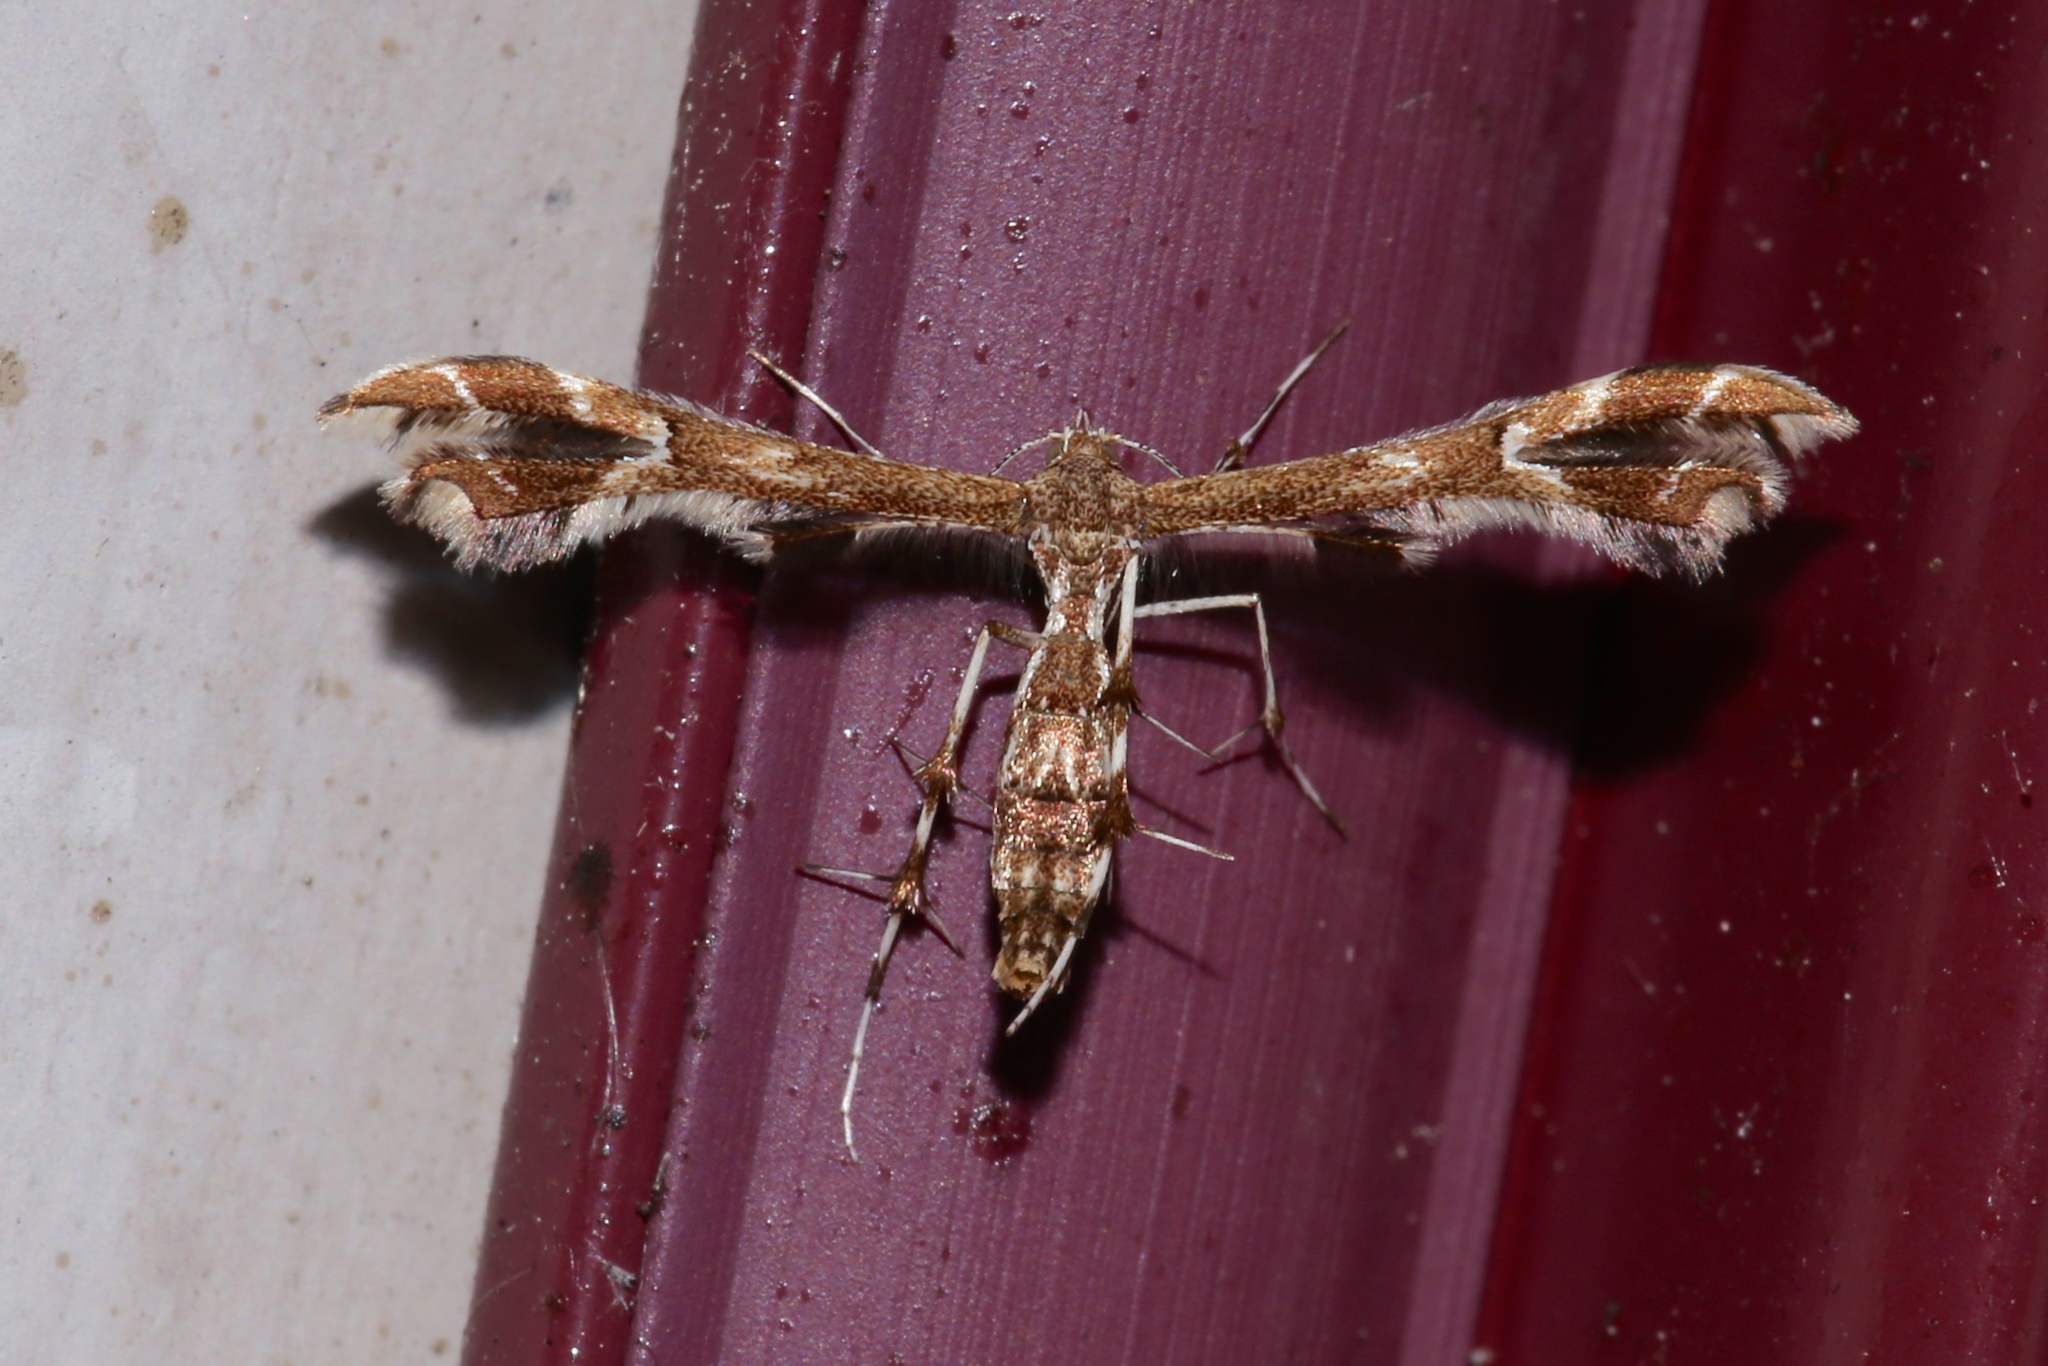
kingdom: Animalia
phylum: Arthropoda
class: Insecta
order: Lepidoptera
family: Pterophoridae
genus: Geina
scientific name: Geina
